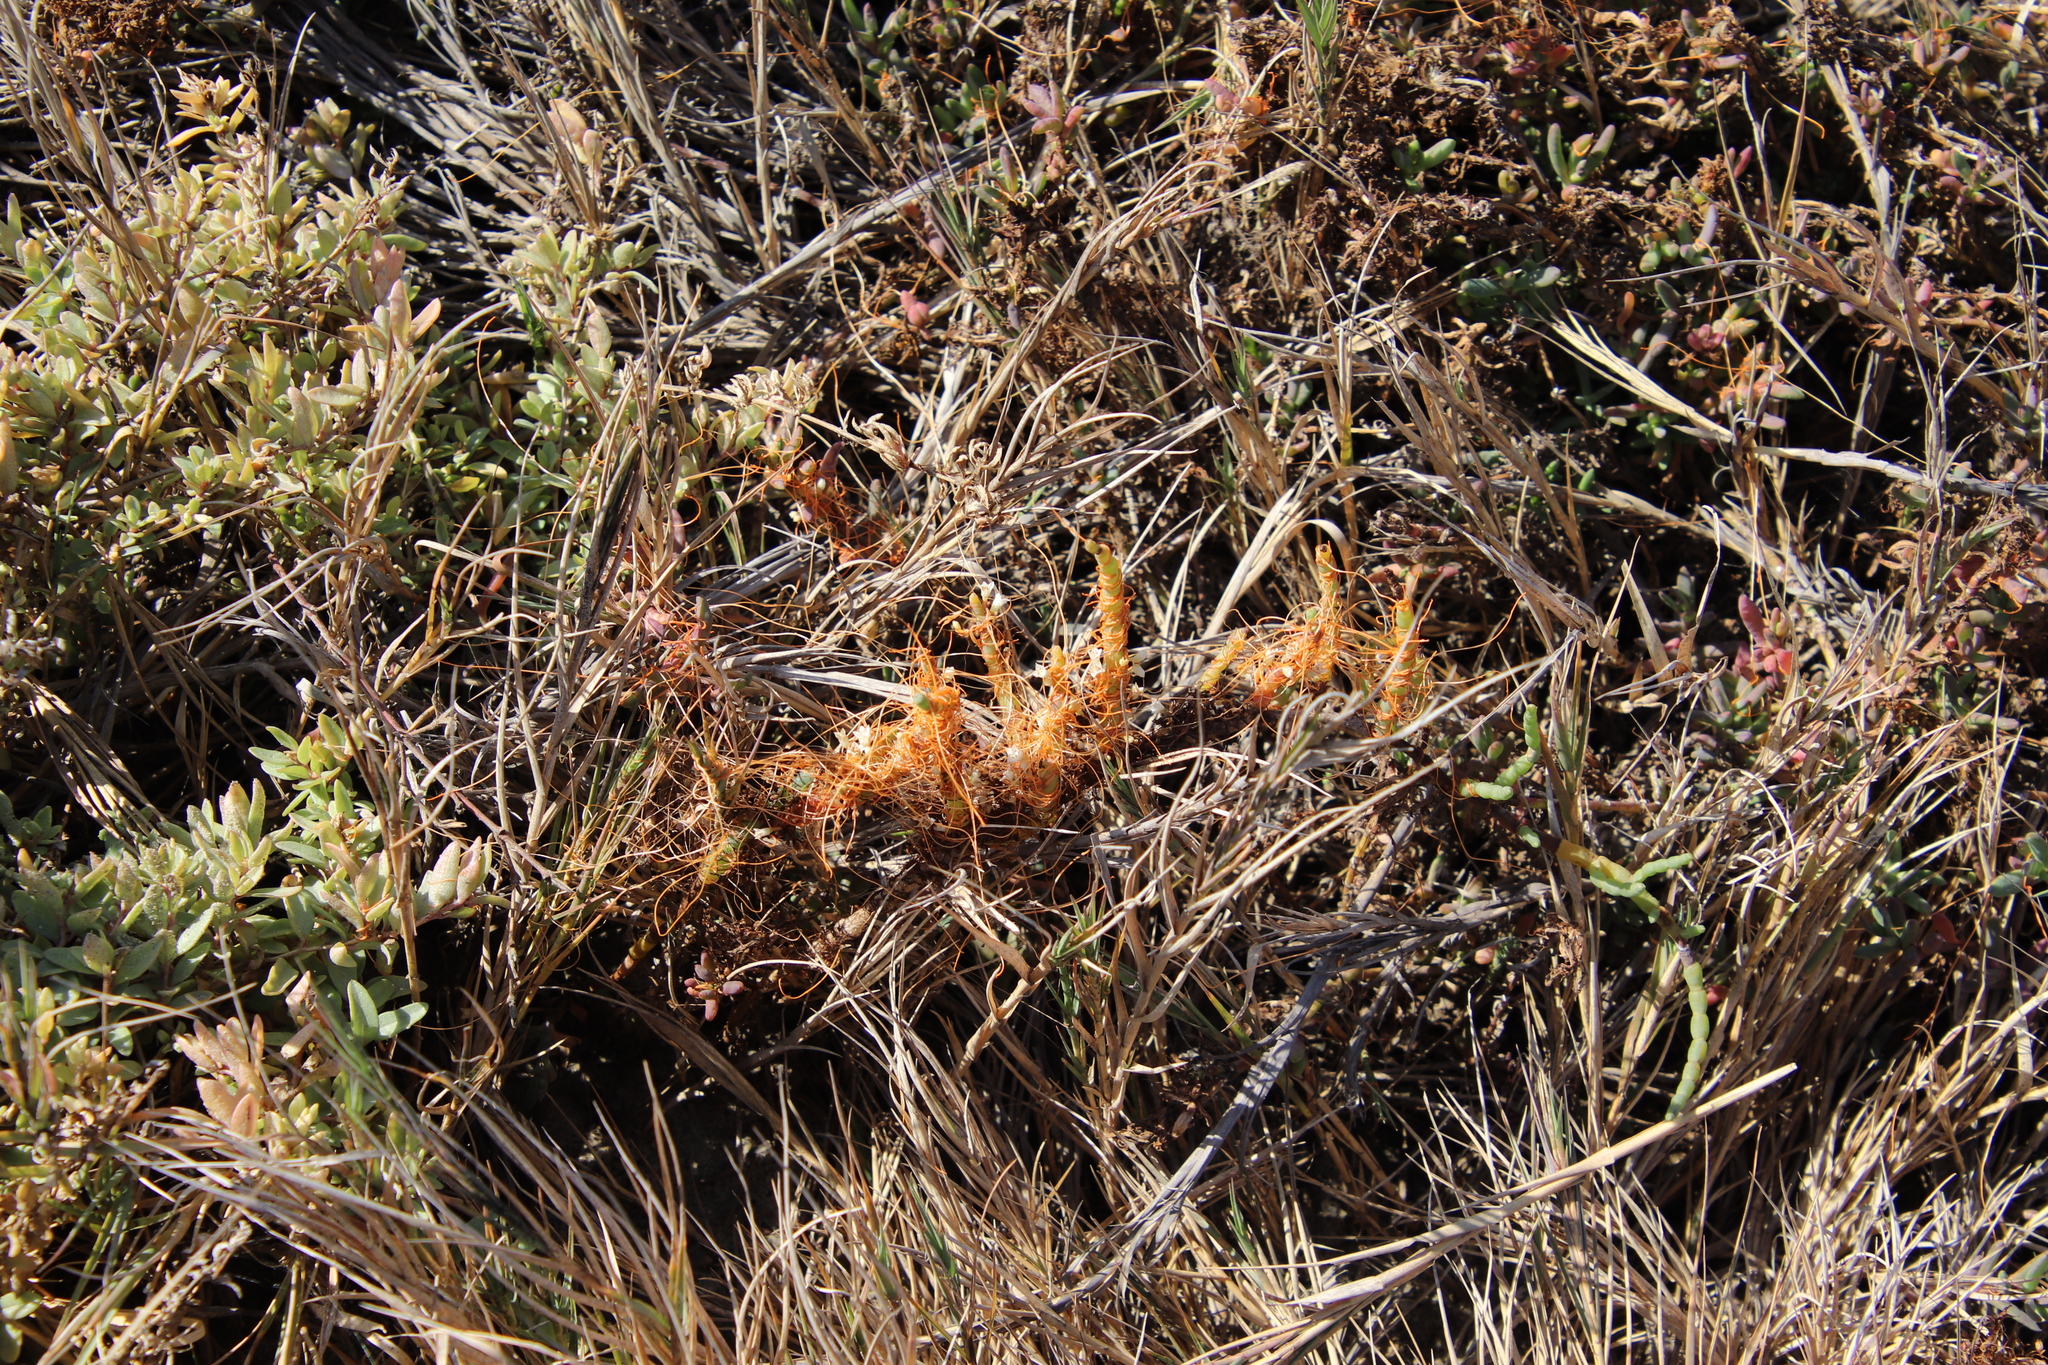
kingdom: Plantae
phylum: Tracheophyta
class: Magnoliopsida
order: Solanales
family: Convolvulaceae
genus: Cuscuta
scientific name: Cuscuta pacifica
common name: Large saltmarsh dodder
